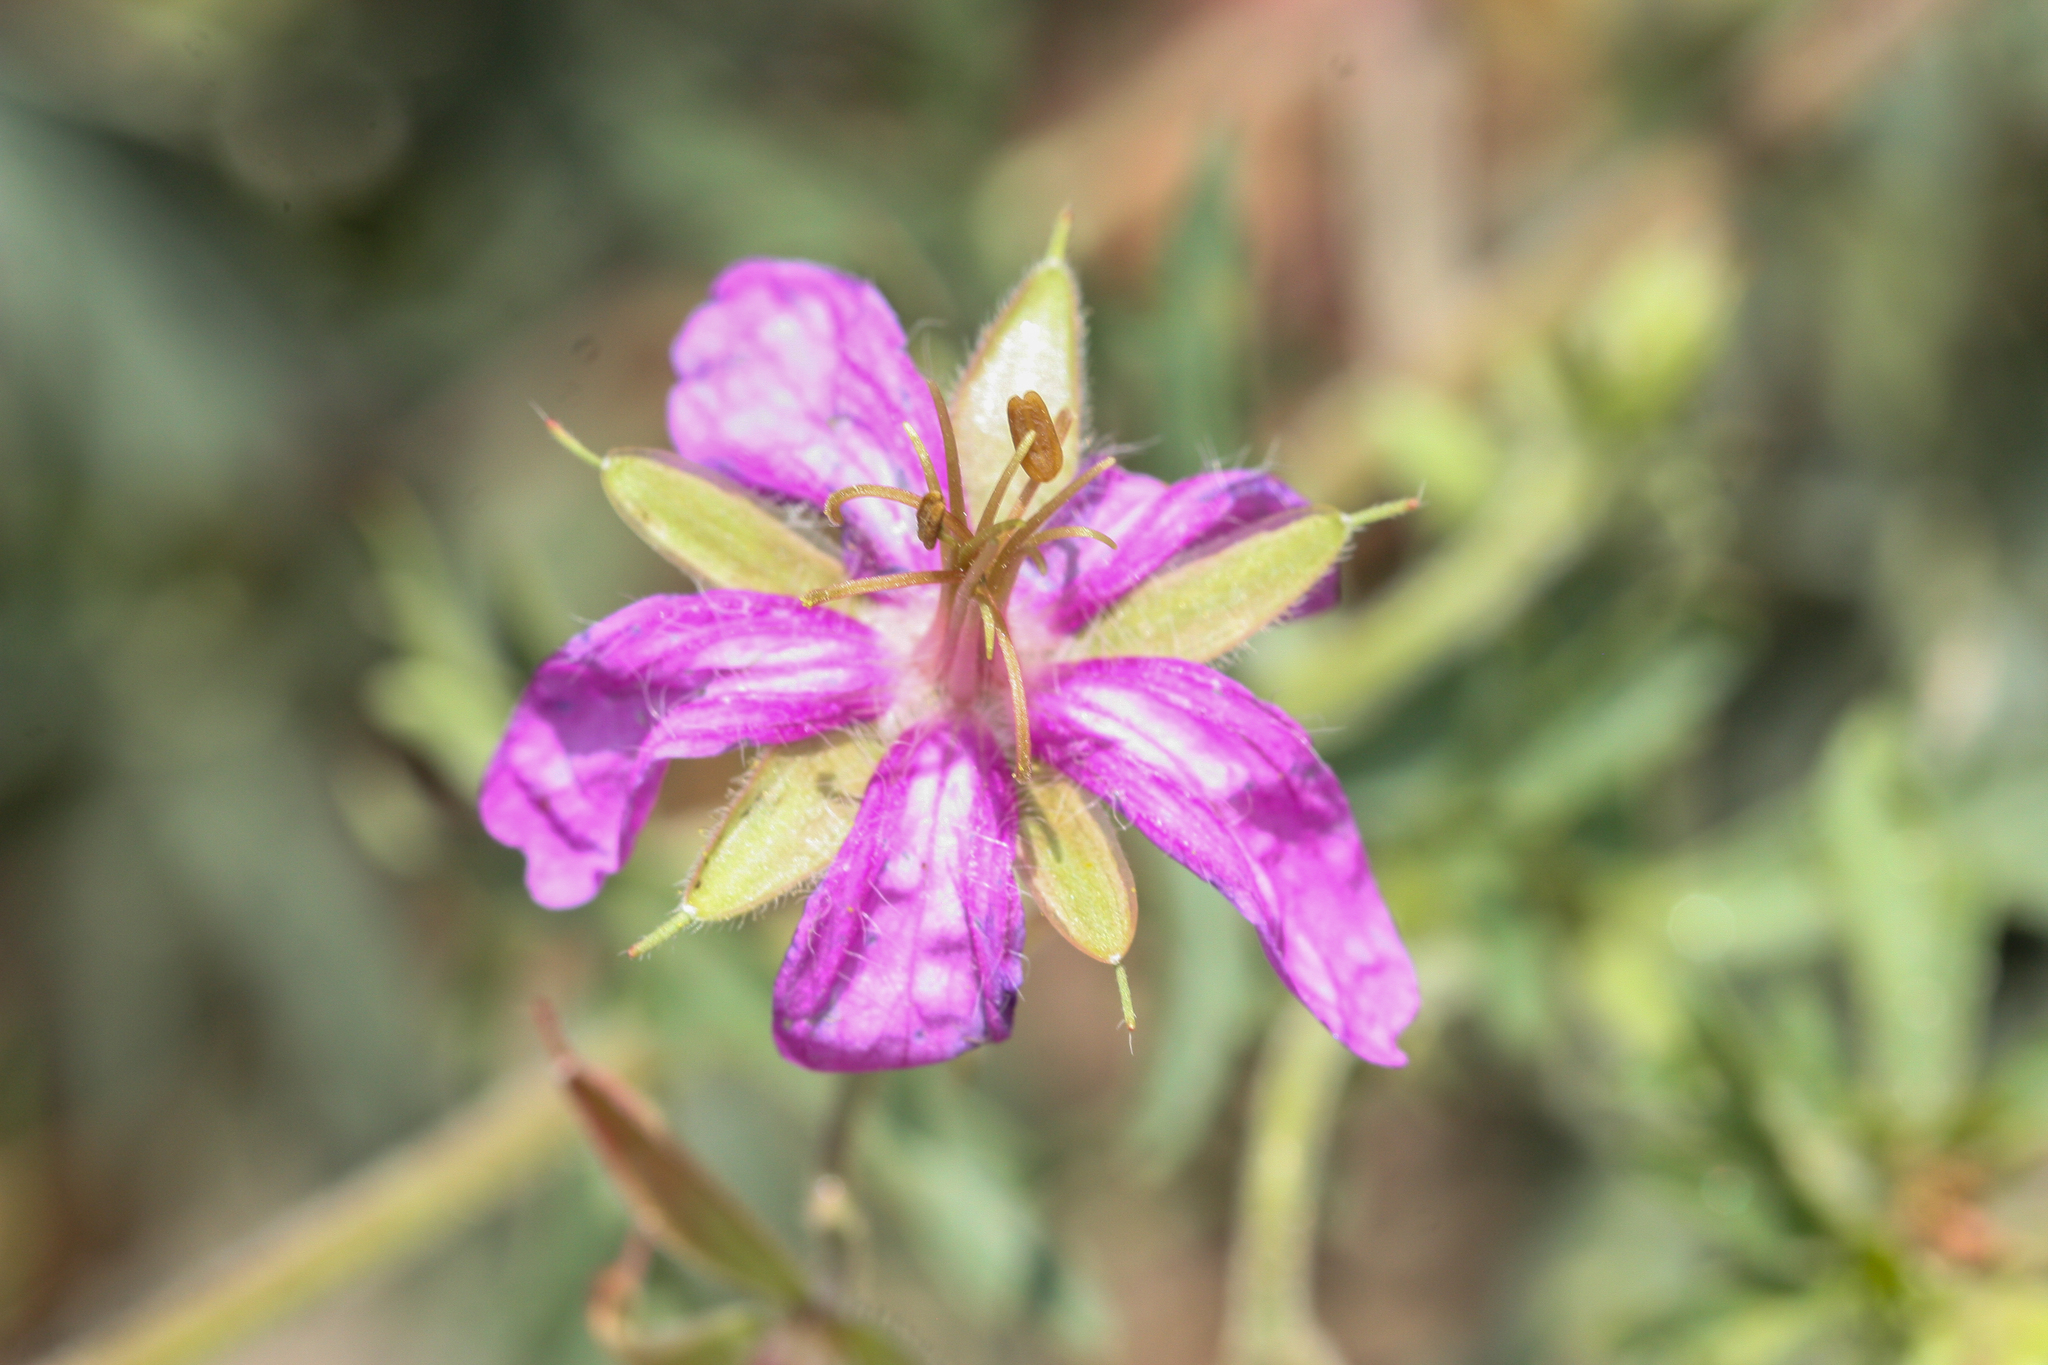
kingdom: Plantae
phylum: Tracheophyta
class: Magnoliopsida
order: Geraniales
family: Geraniaceae
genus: Geranium
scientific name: Geranium caespitosum
